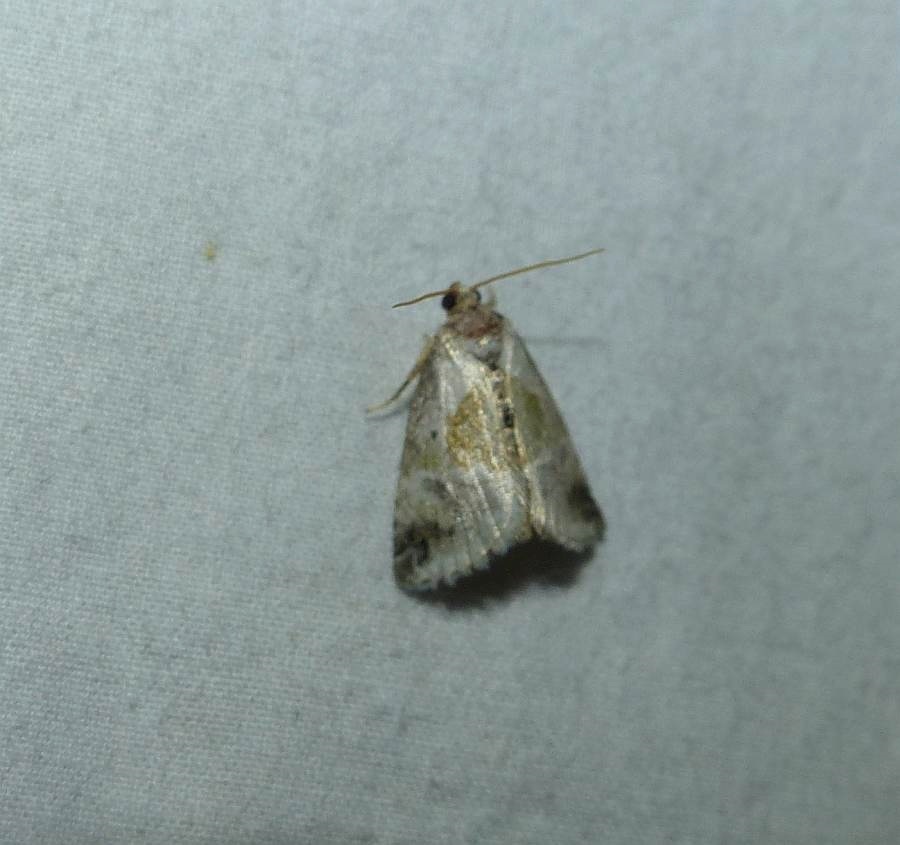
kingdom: Animalia
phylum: Arthropoda
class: Insecta
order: Lepidoptera
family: Noctuidae
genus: Maliattha
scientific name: Maliattha synochitis
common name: Black-dotted glyph
